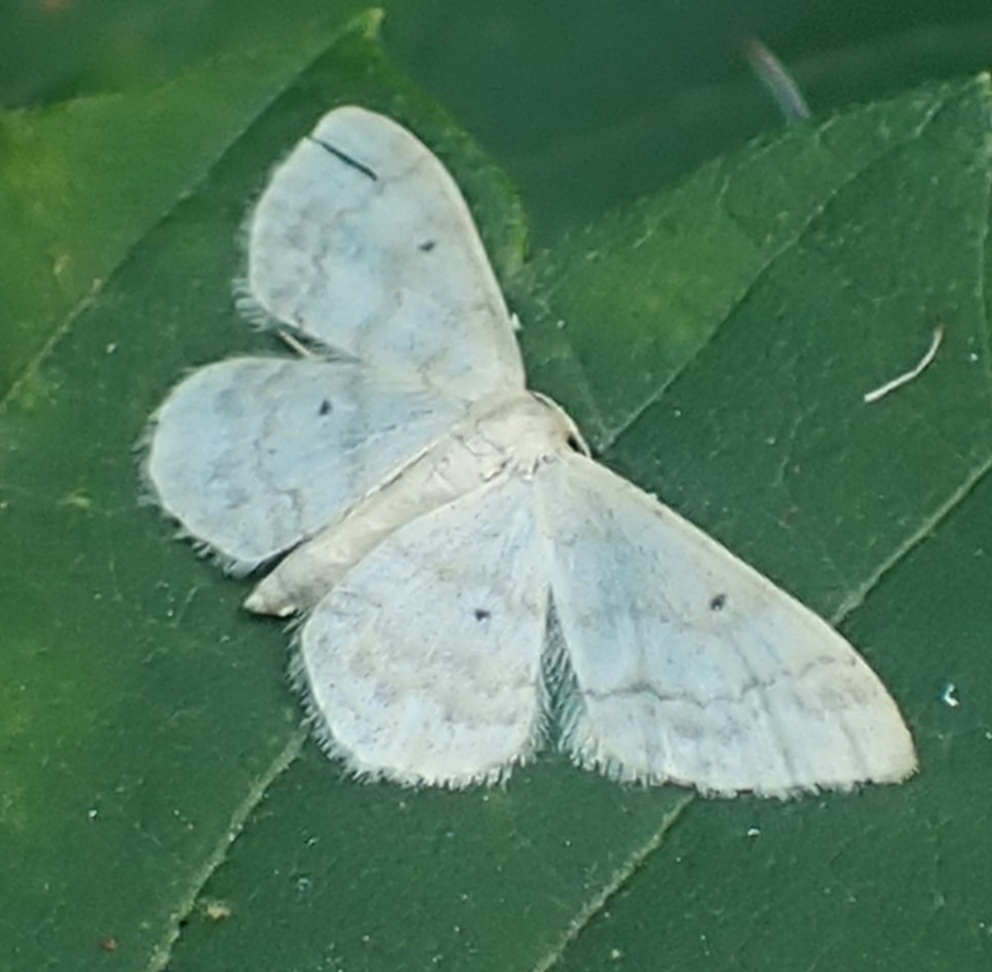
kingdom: Animalia
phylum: Arthropoda
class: Insecta
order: Lepidoptera
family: Geometridae
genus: Idaea
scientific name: Idaea biselata
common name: Small fan-footed wave
